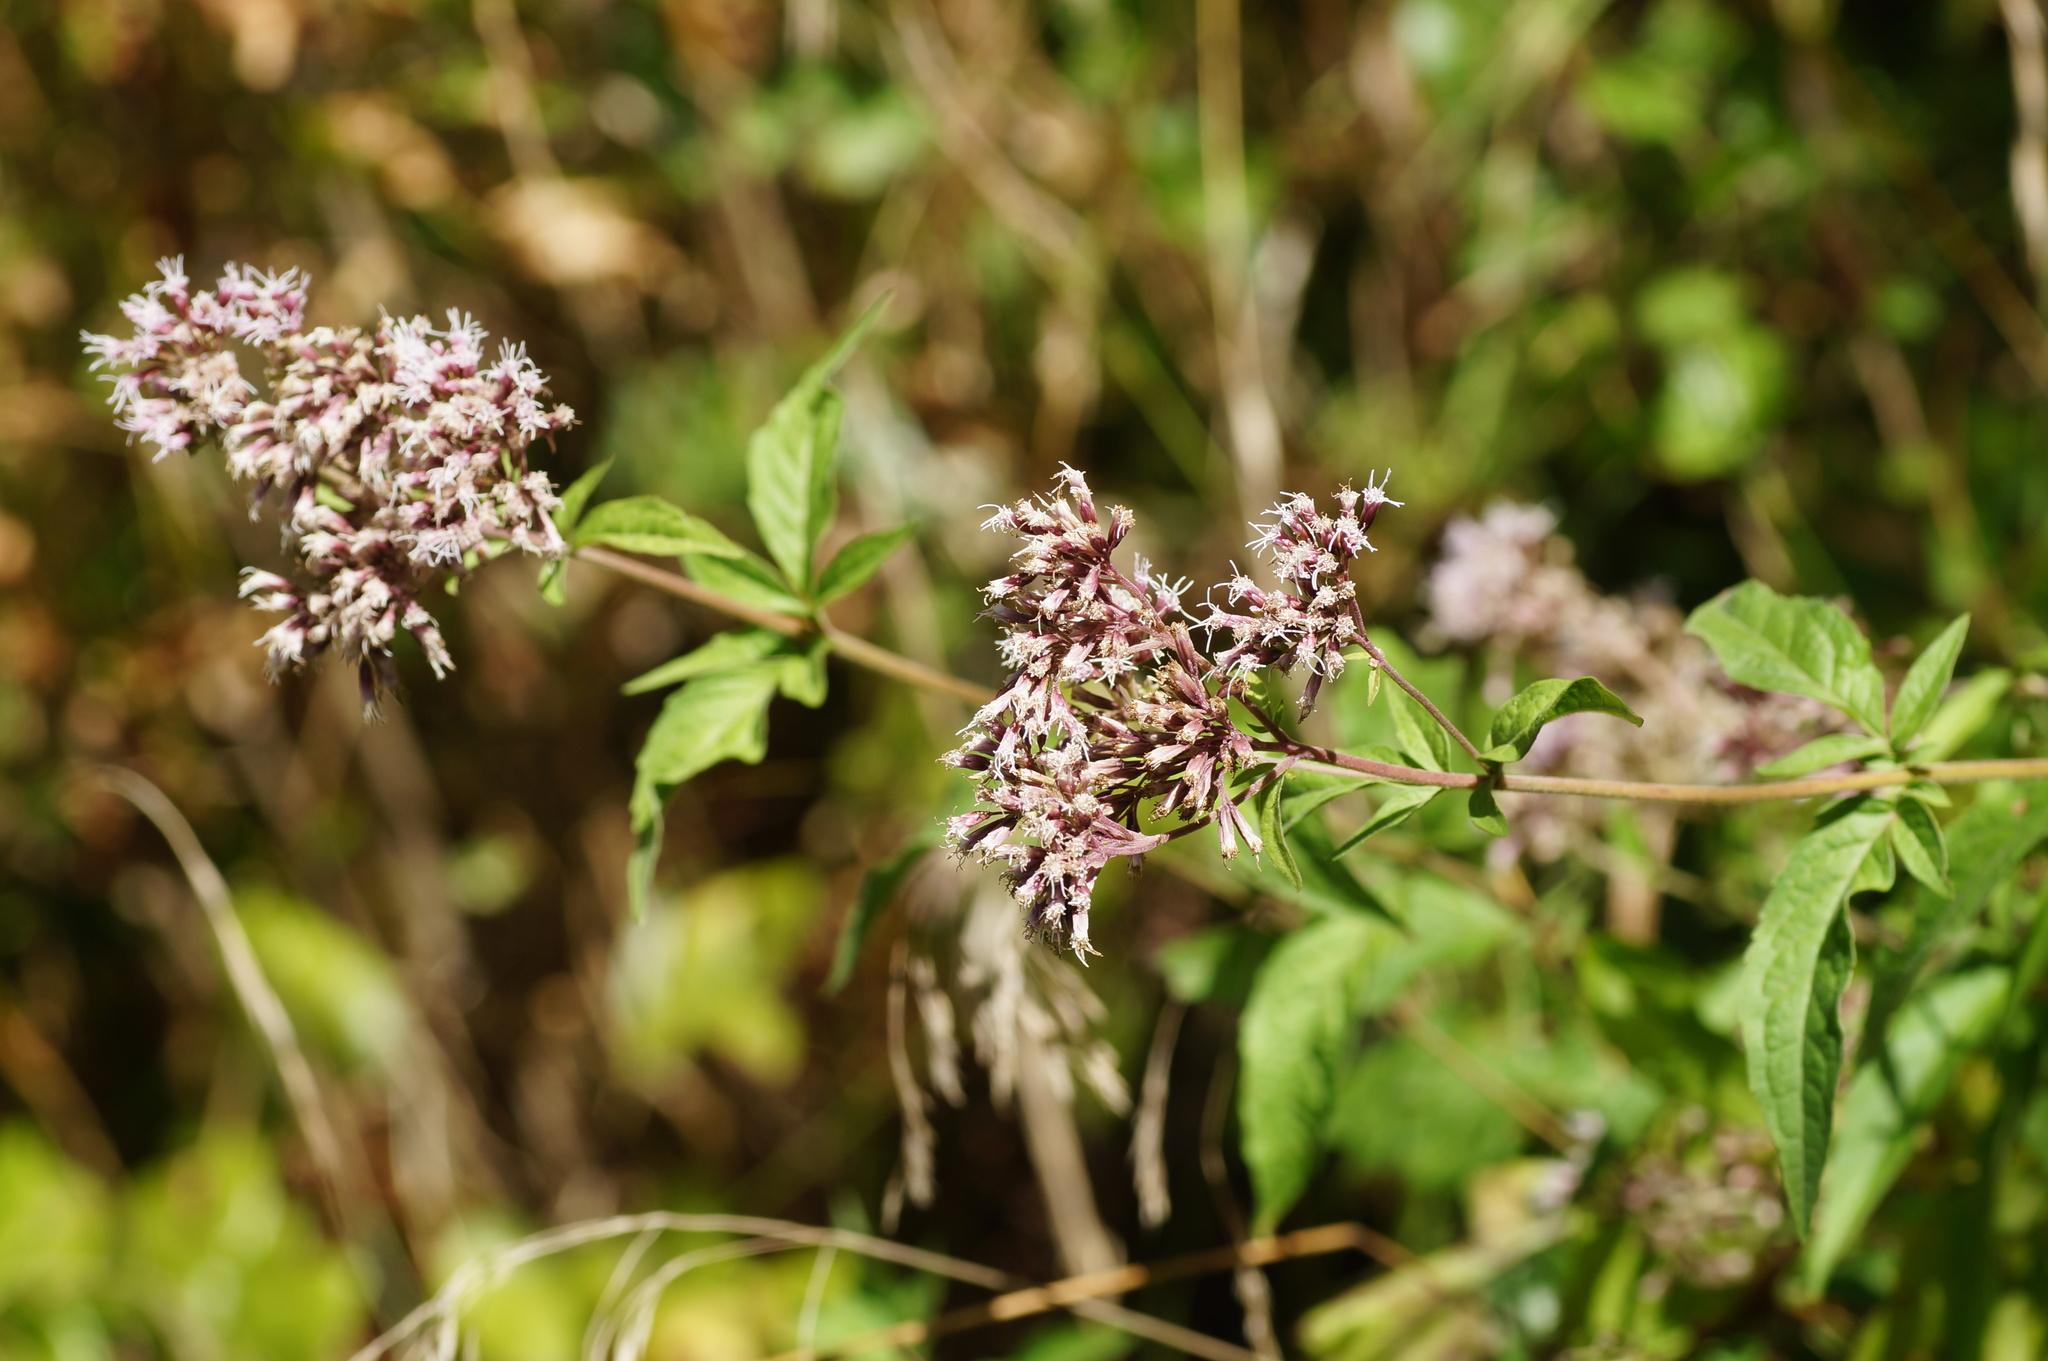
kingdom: Plantae
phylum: Tracheophyta
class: Magnoliopsida
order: Asterales
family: Asteraceae
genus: Eupatorium
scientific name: Eupatorium cannabinum
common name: Hemp-agrimony
